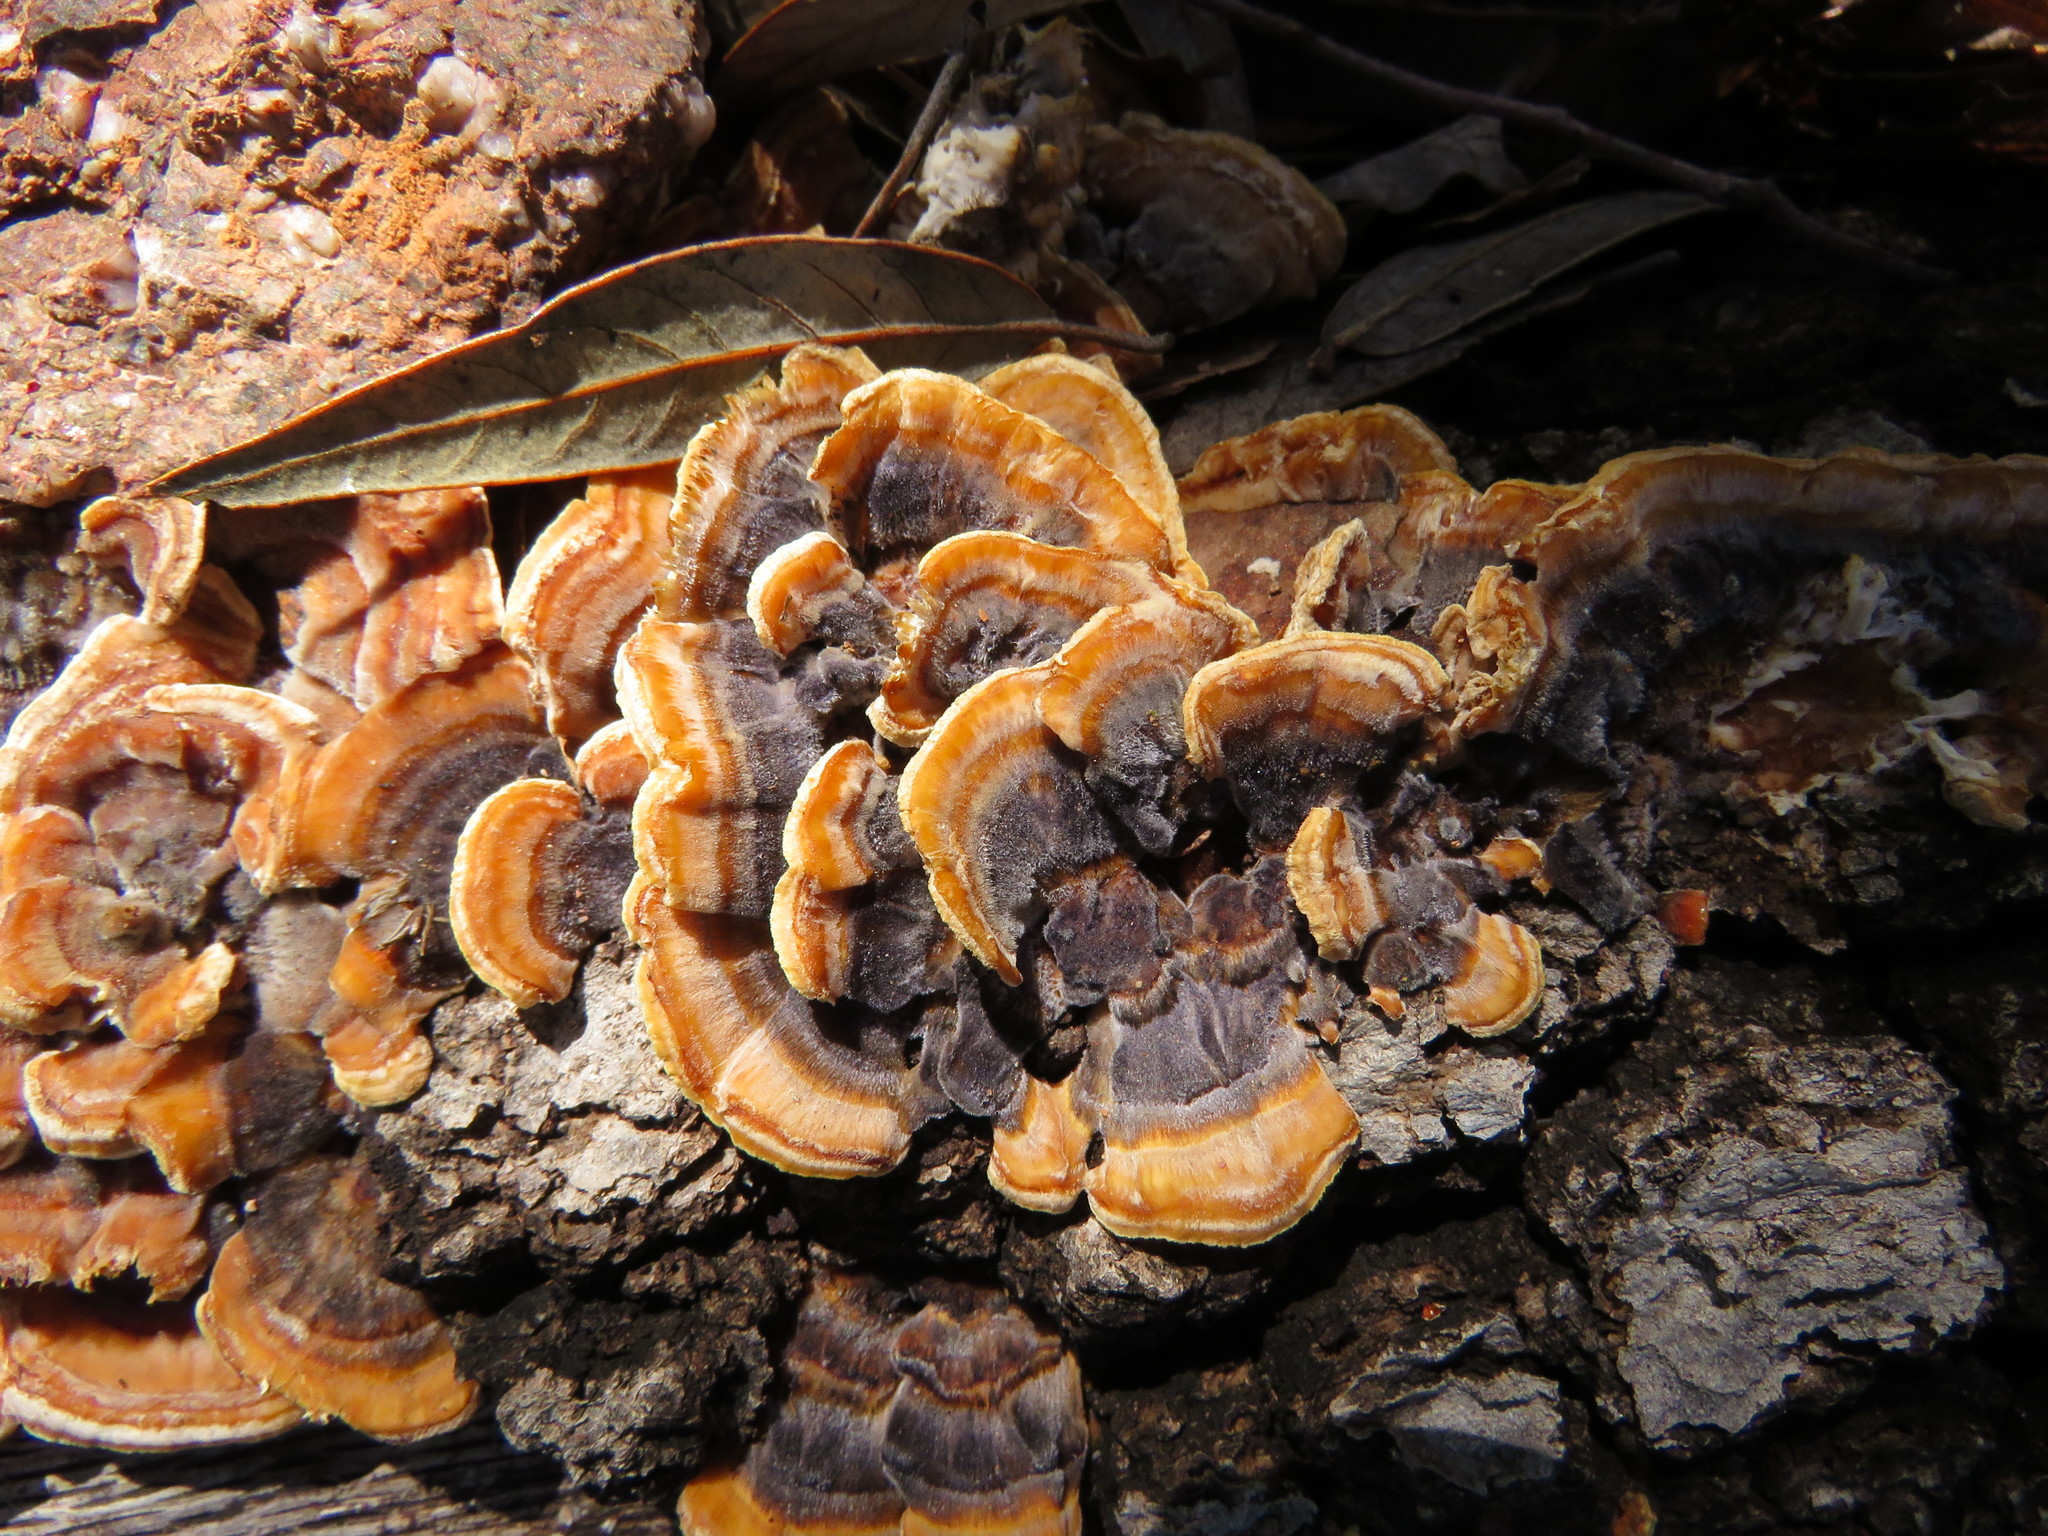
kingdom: Fungi
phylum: Basidiomycota
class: Agaricomycetes
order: Russulales
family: Stereaceae
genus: Stereum
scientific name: Stereum hirsutum
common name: Hairy curtain crust
